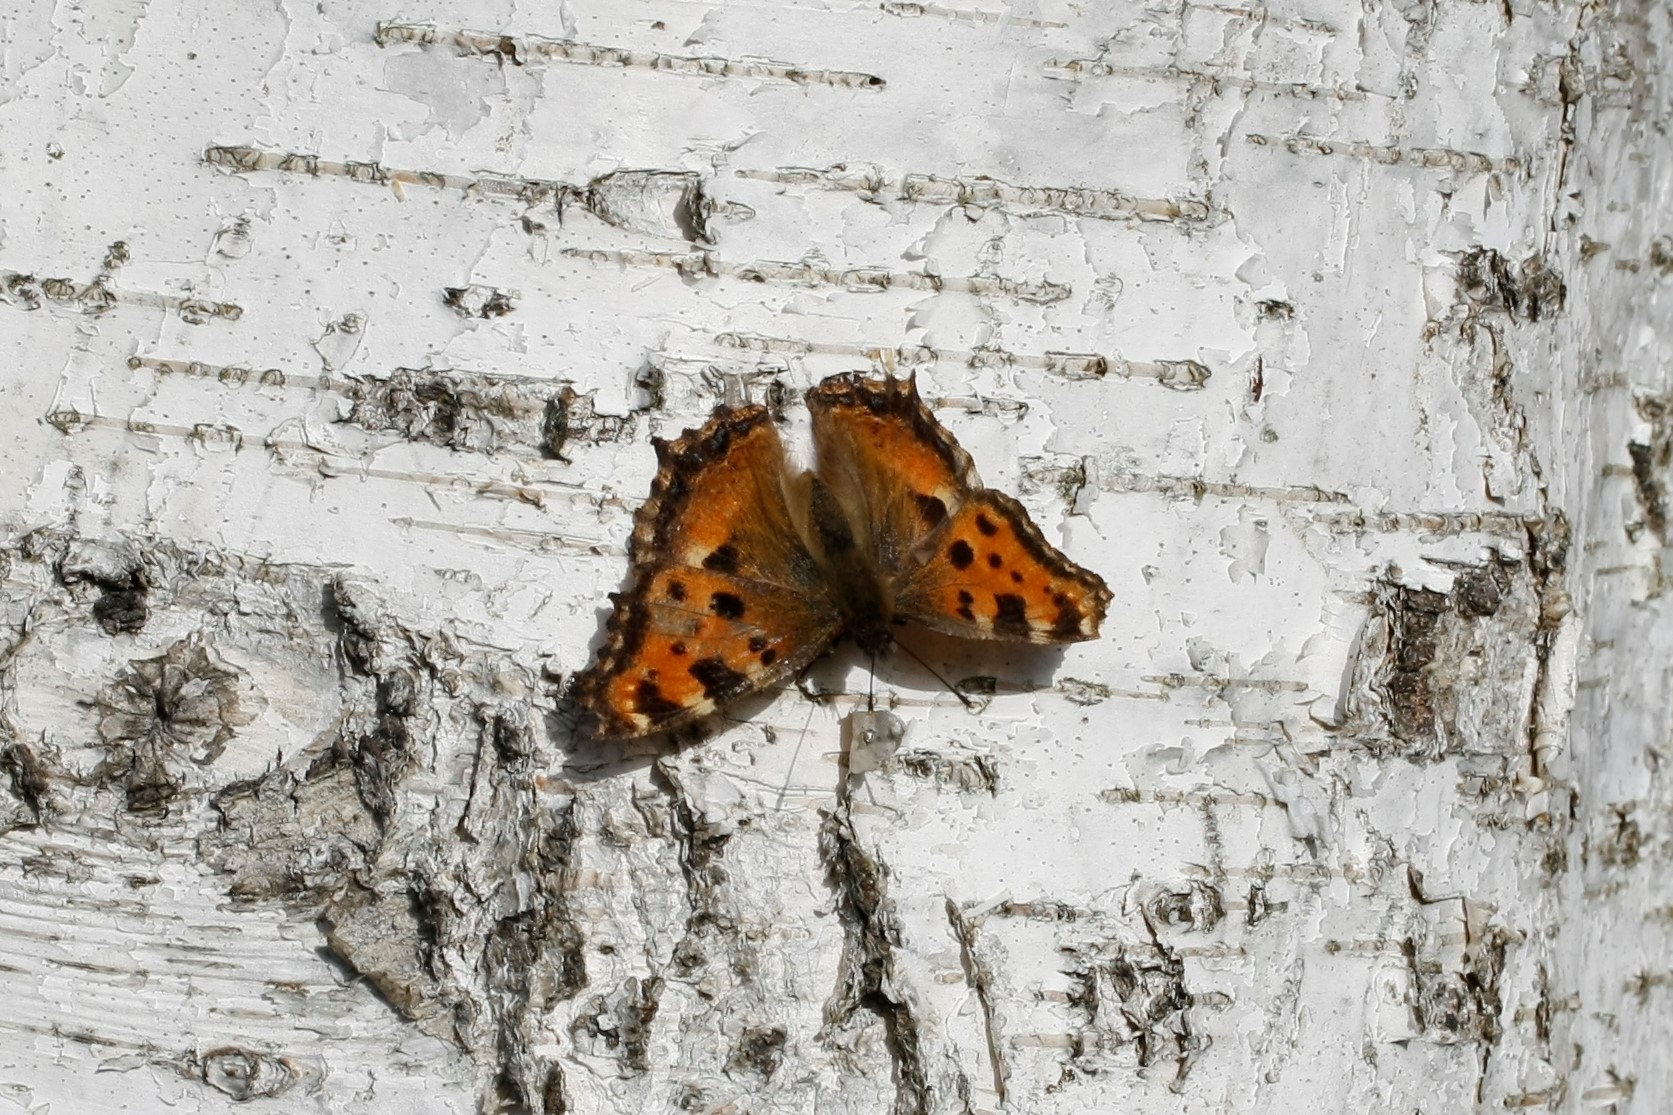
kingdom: Animalia
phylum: Arthropoda
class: Insecta
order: Lepidoptera
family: Nymphalidae
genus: Nymphalis
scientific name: Nymphalis polychloros
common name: Large tortoiseshell
